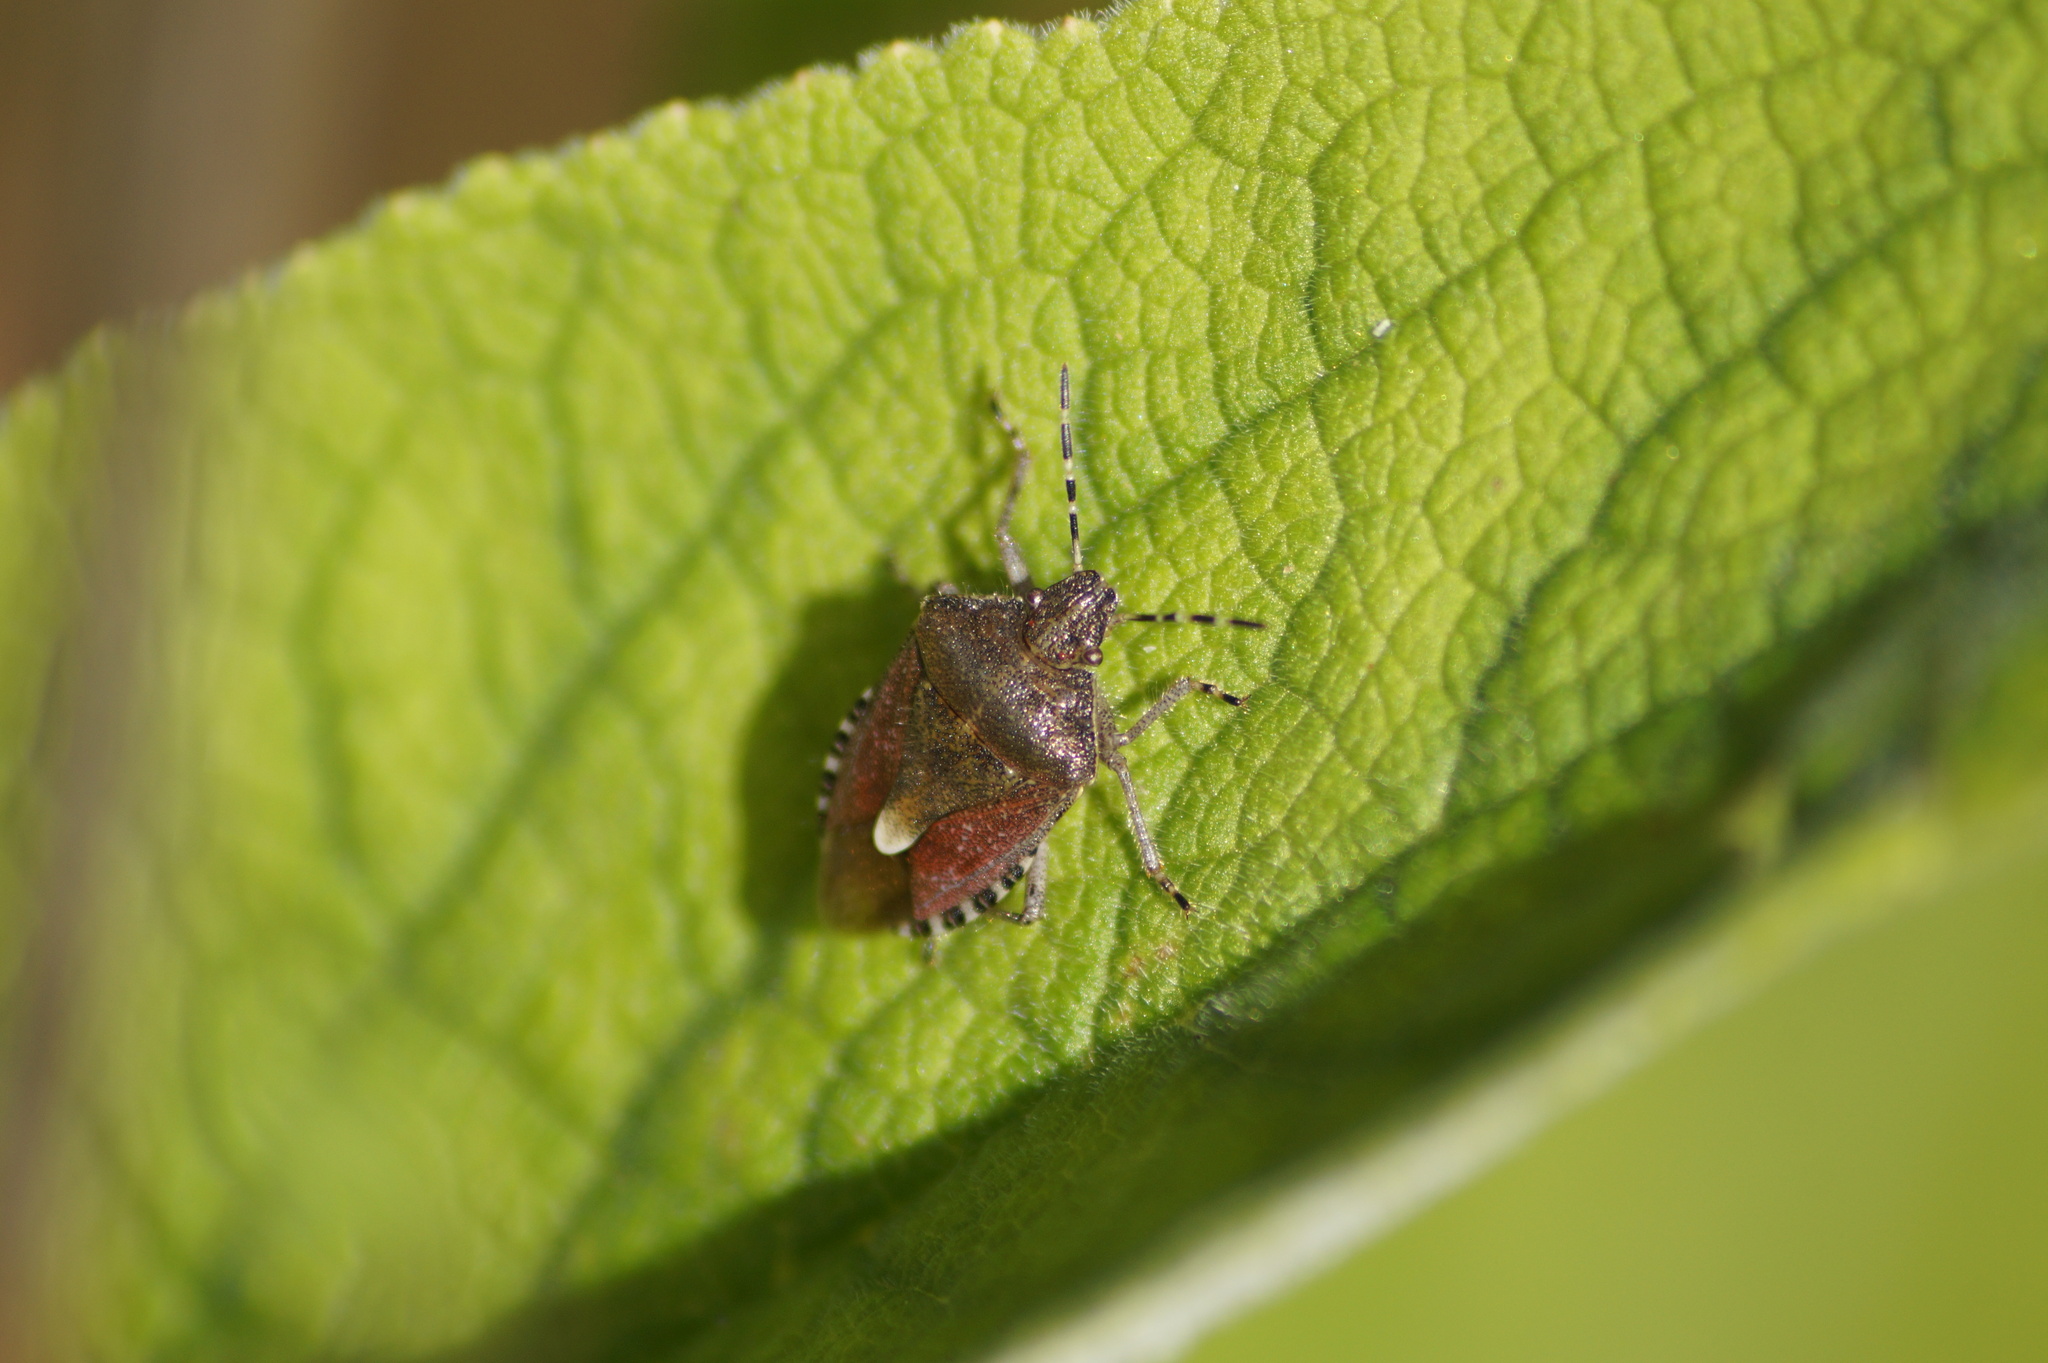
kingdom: Animalia
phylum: Arthropoda
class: Insecta
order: Hemiptera
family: Pentatomidae
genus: Dolycoris
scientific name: Dolycoris baccarum
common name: Sloe bug
